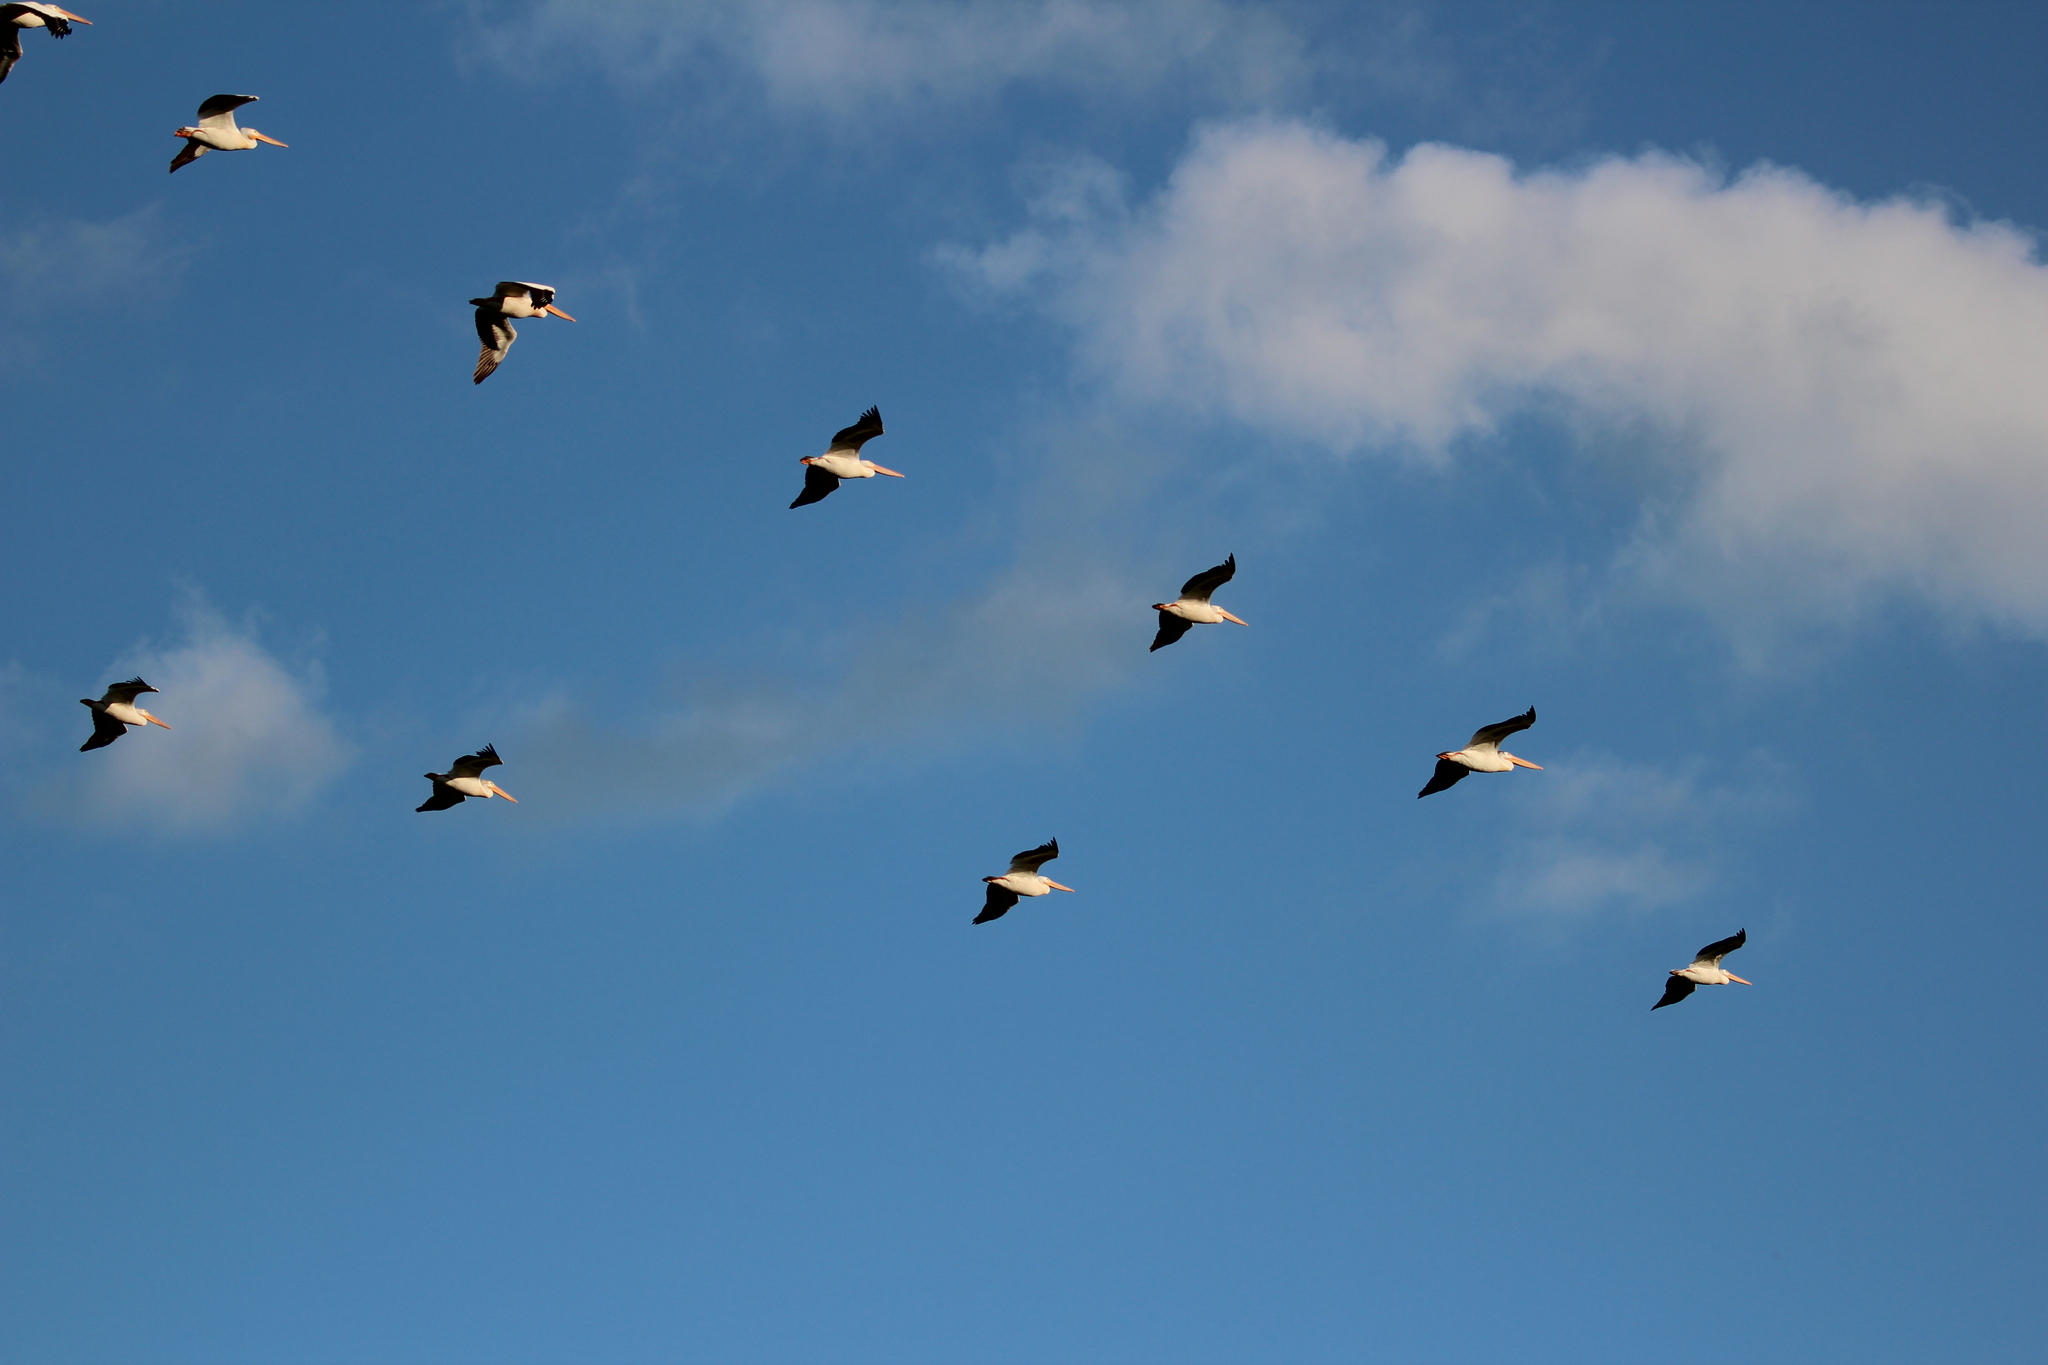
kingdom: Animalia
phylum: Chordata
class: Aves
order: Pelecaniformes
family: Pelecanidae
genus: Pelecanus
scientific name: Pelecanus erythrorhynchos
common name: American white pelican
